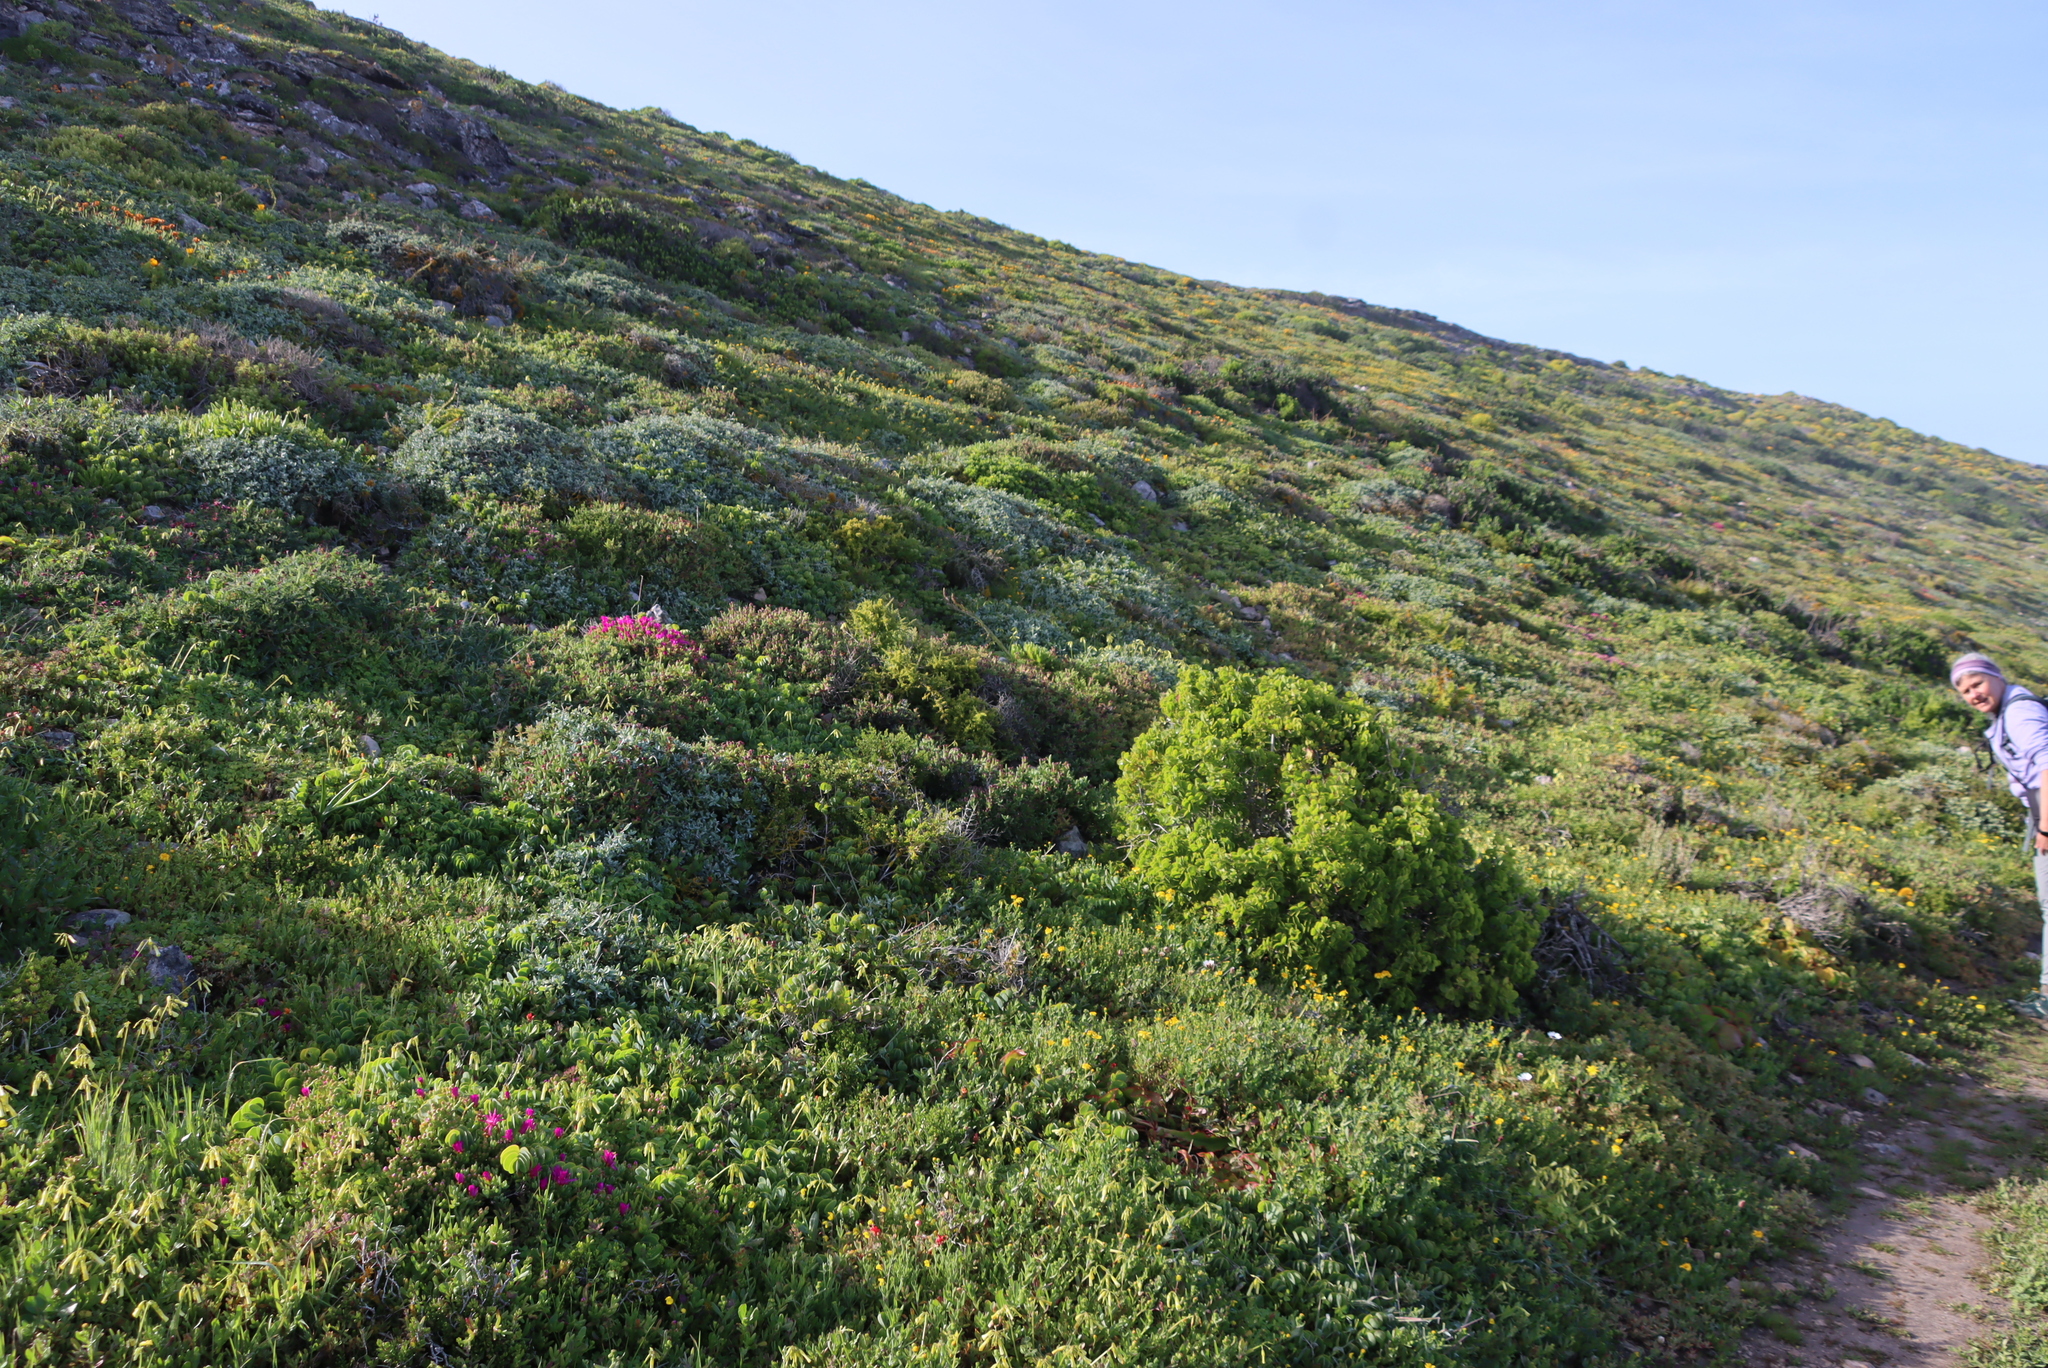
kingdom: Plantae
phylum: Tracheophyta
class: Magnoliopsida
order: Caryophyllales
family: Aizoaceae
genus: Lampranthus
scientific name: Lampranthus vernalis
